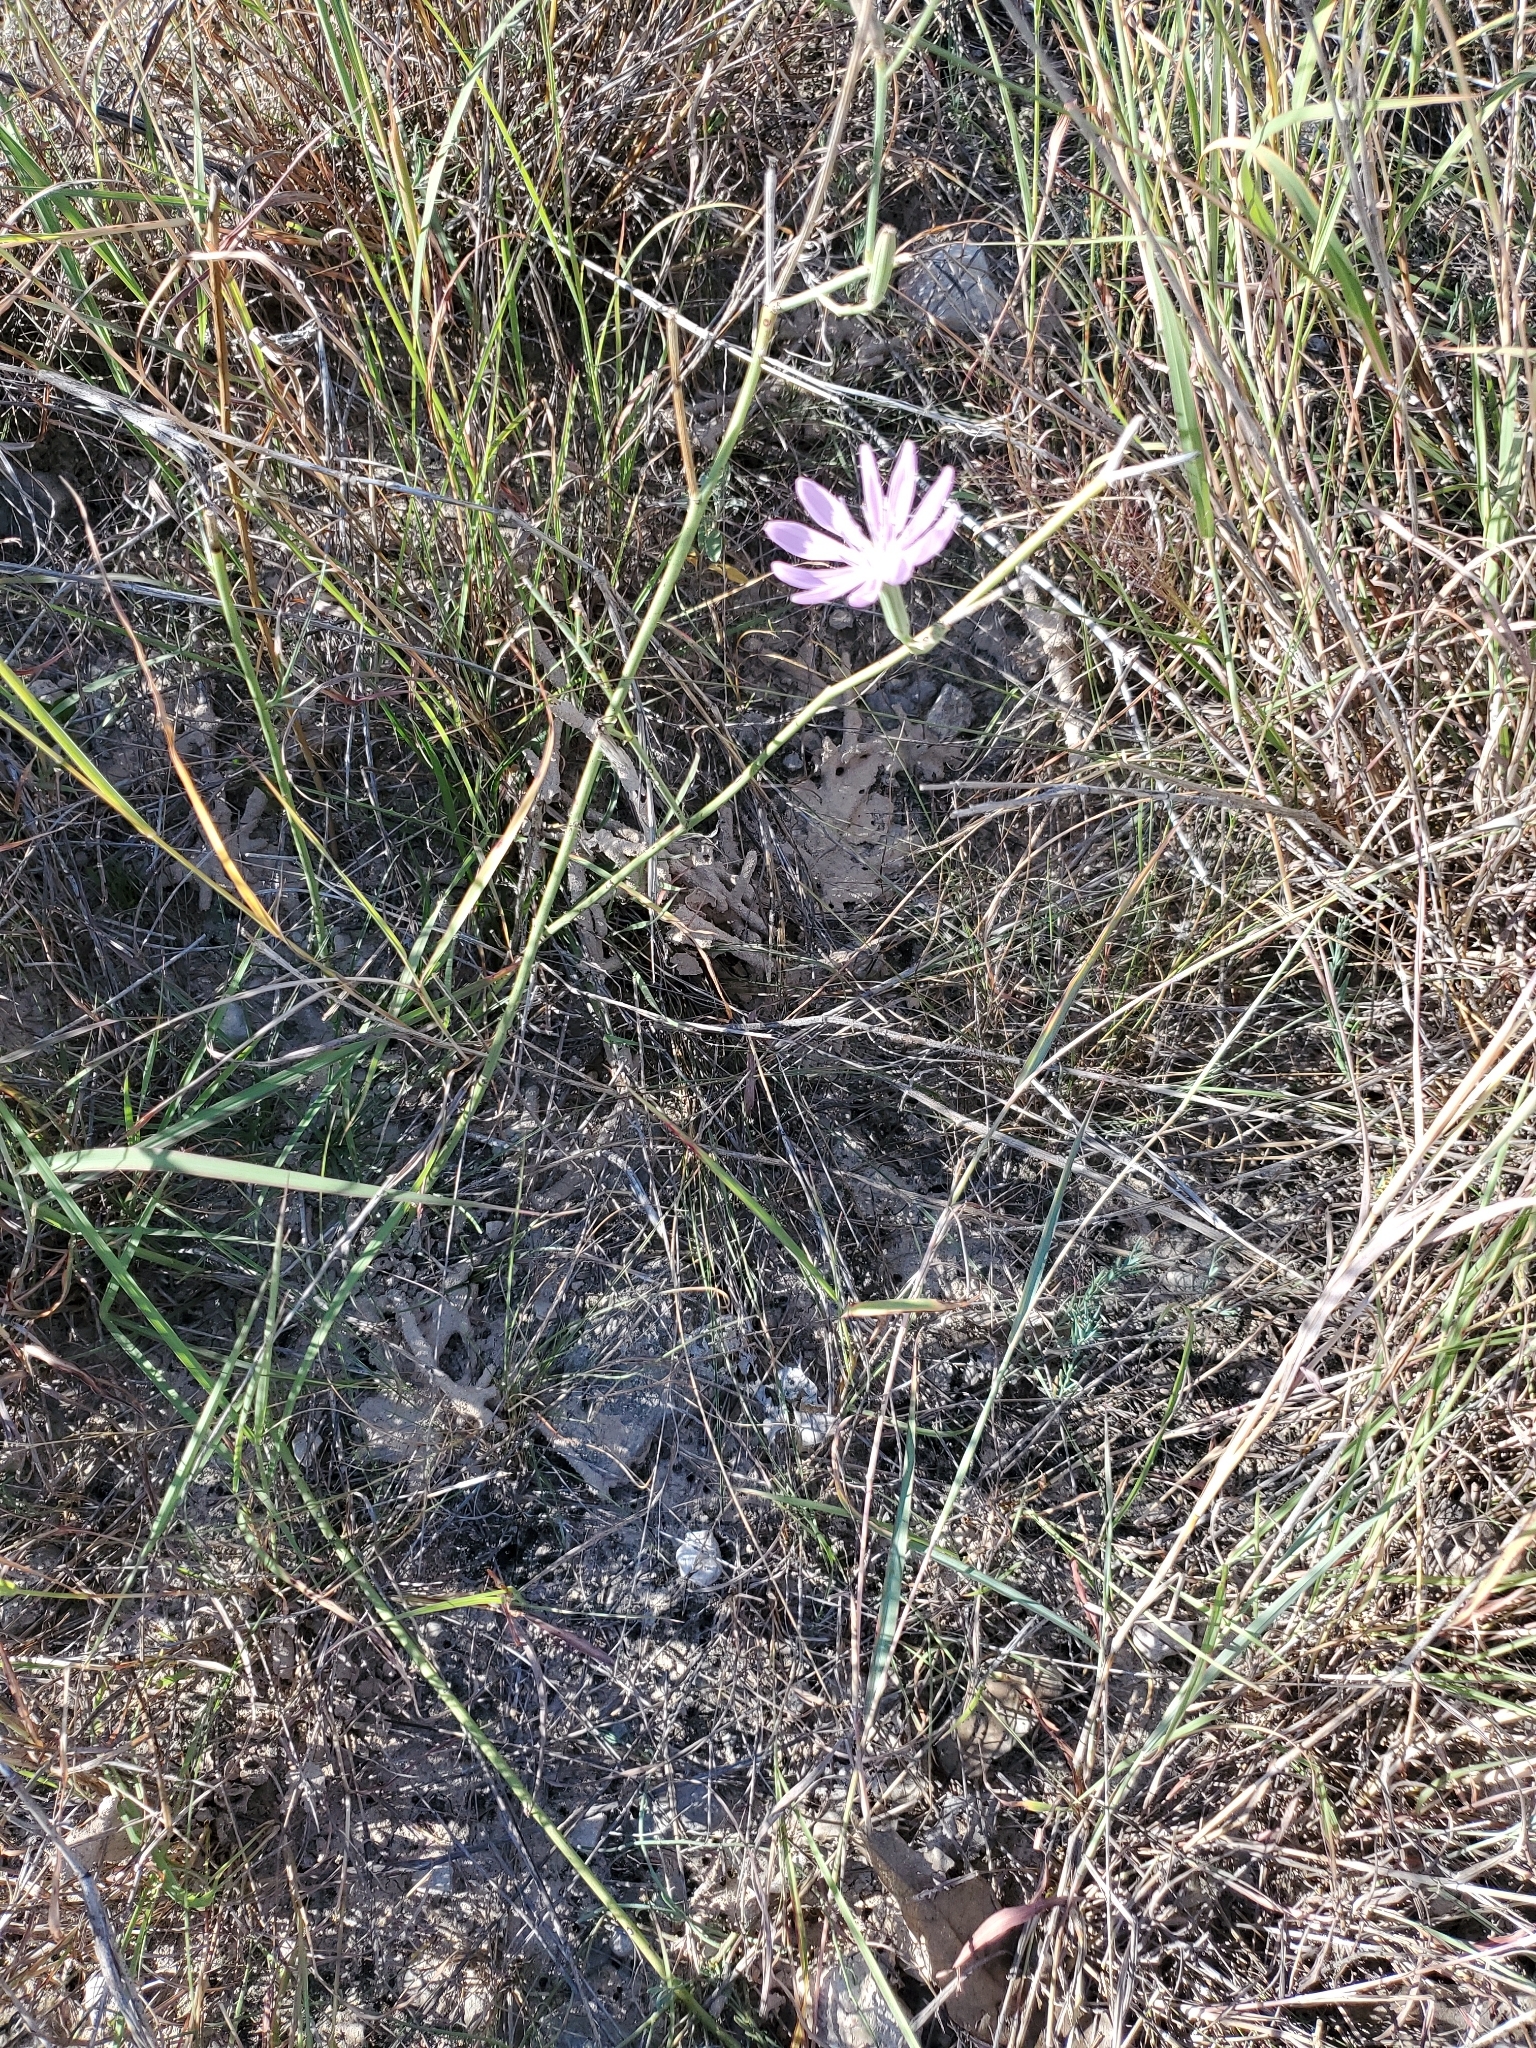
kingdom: Plantae
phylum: Tracheophyta
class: Magnoliopsida
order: Asterales
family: Asteraceae
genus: Lygodesmia
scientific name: Lygodesmia texana
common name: Texas skeleton-plant
